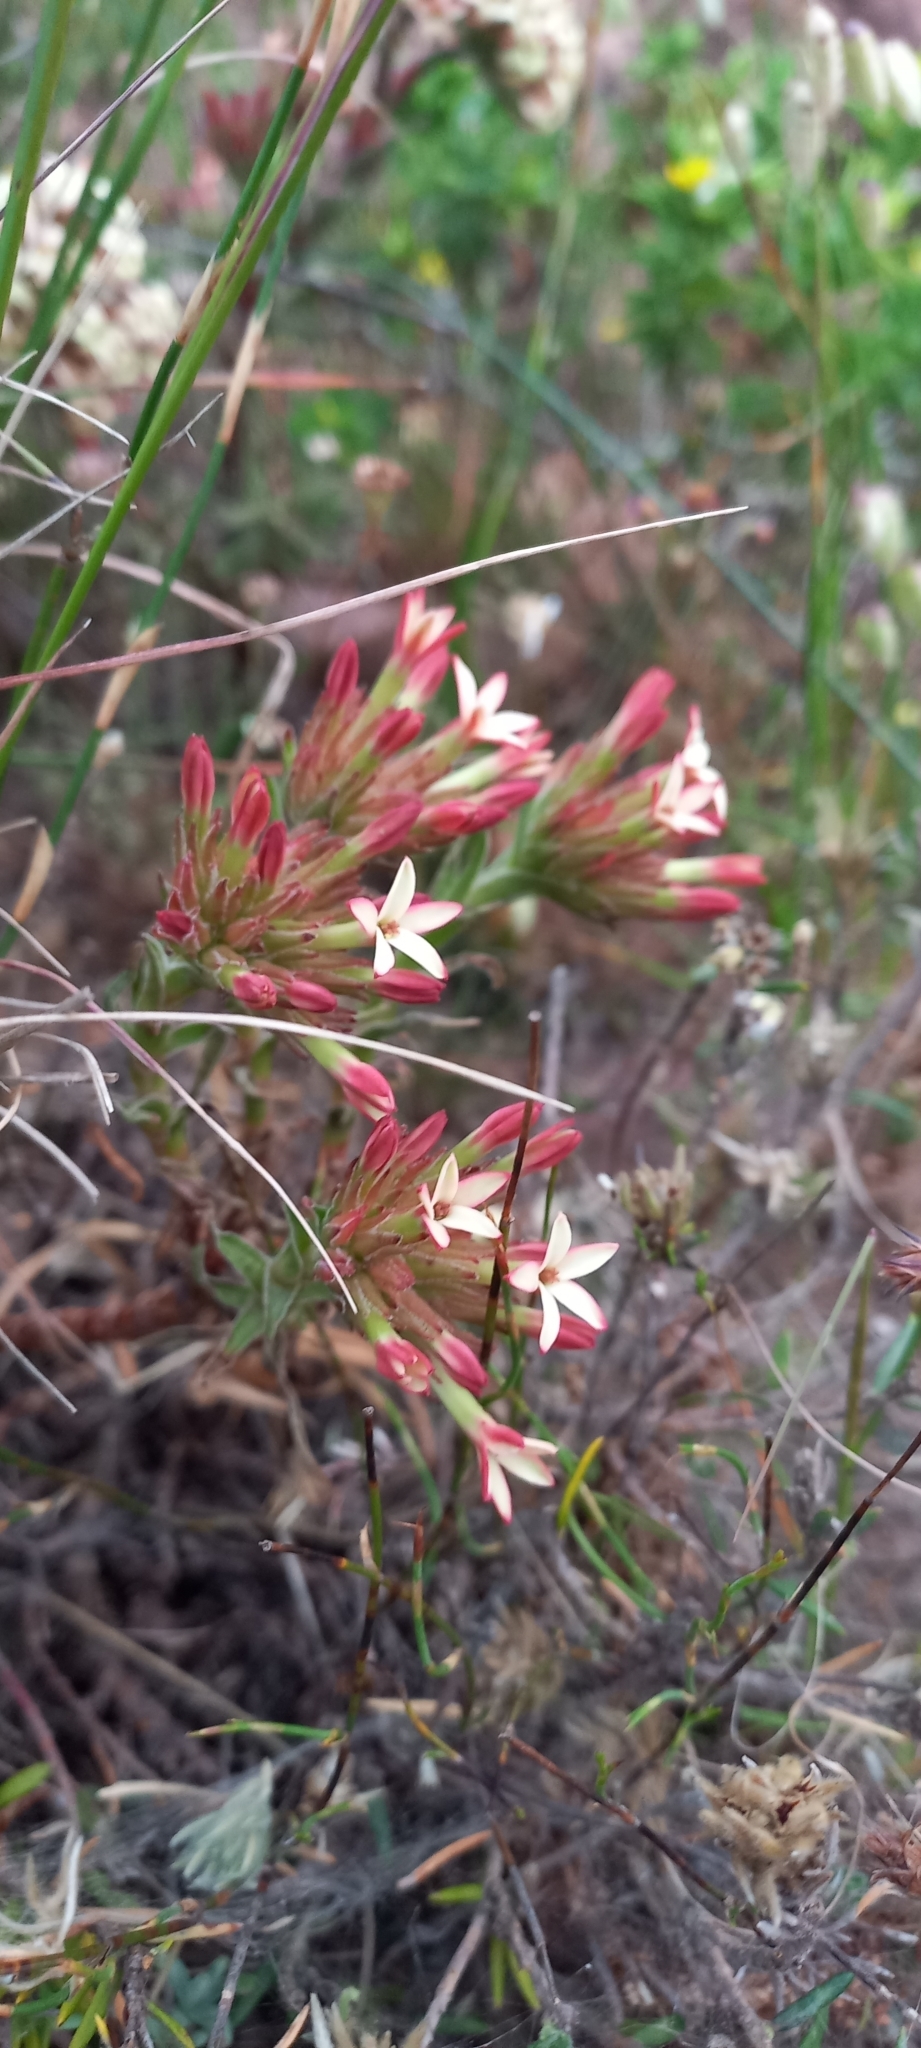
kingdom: Plantae
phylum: Tracheophyta
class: Magnoliopsida
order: Saxifragales
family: Crassulaceae
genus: Crassula
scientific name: Crassula fascicularis
